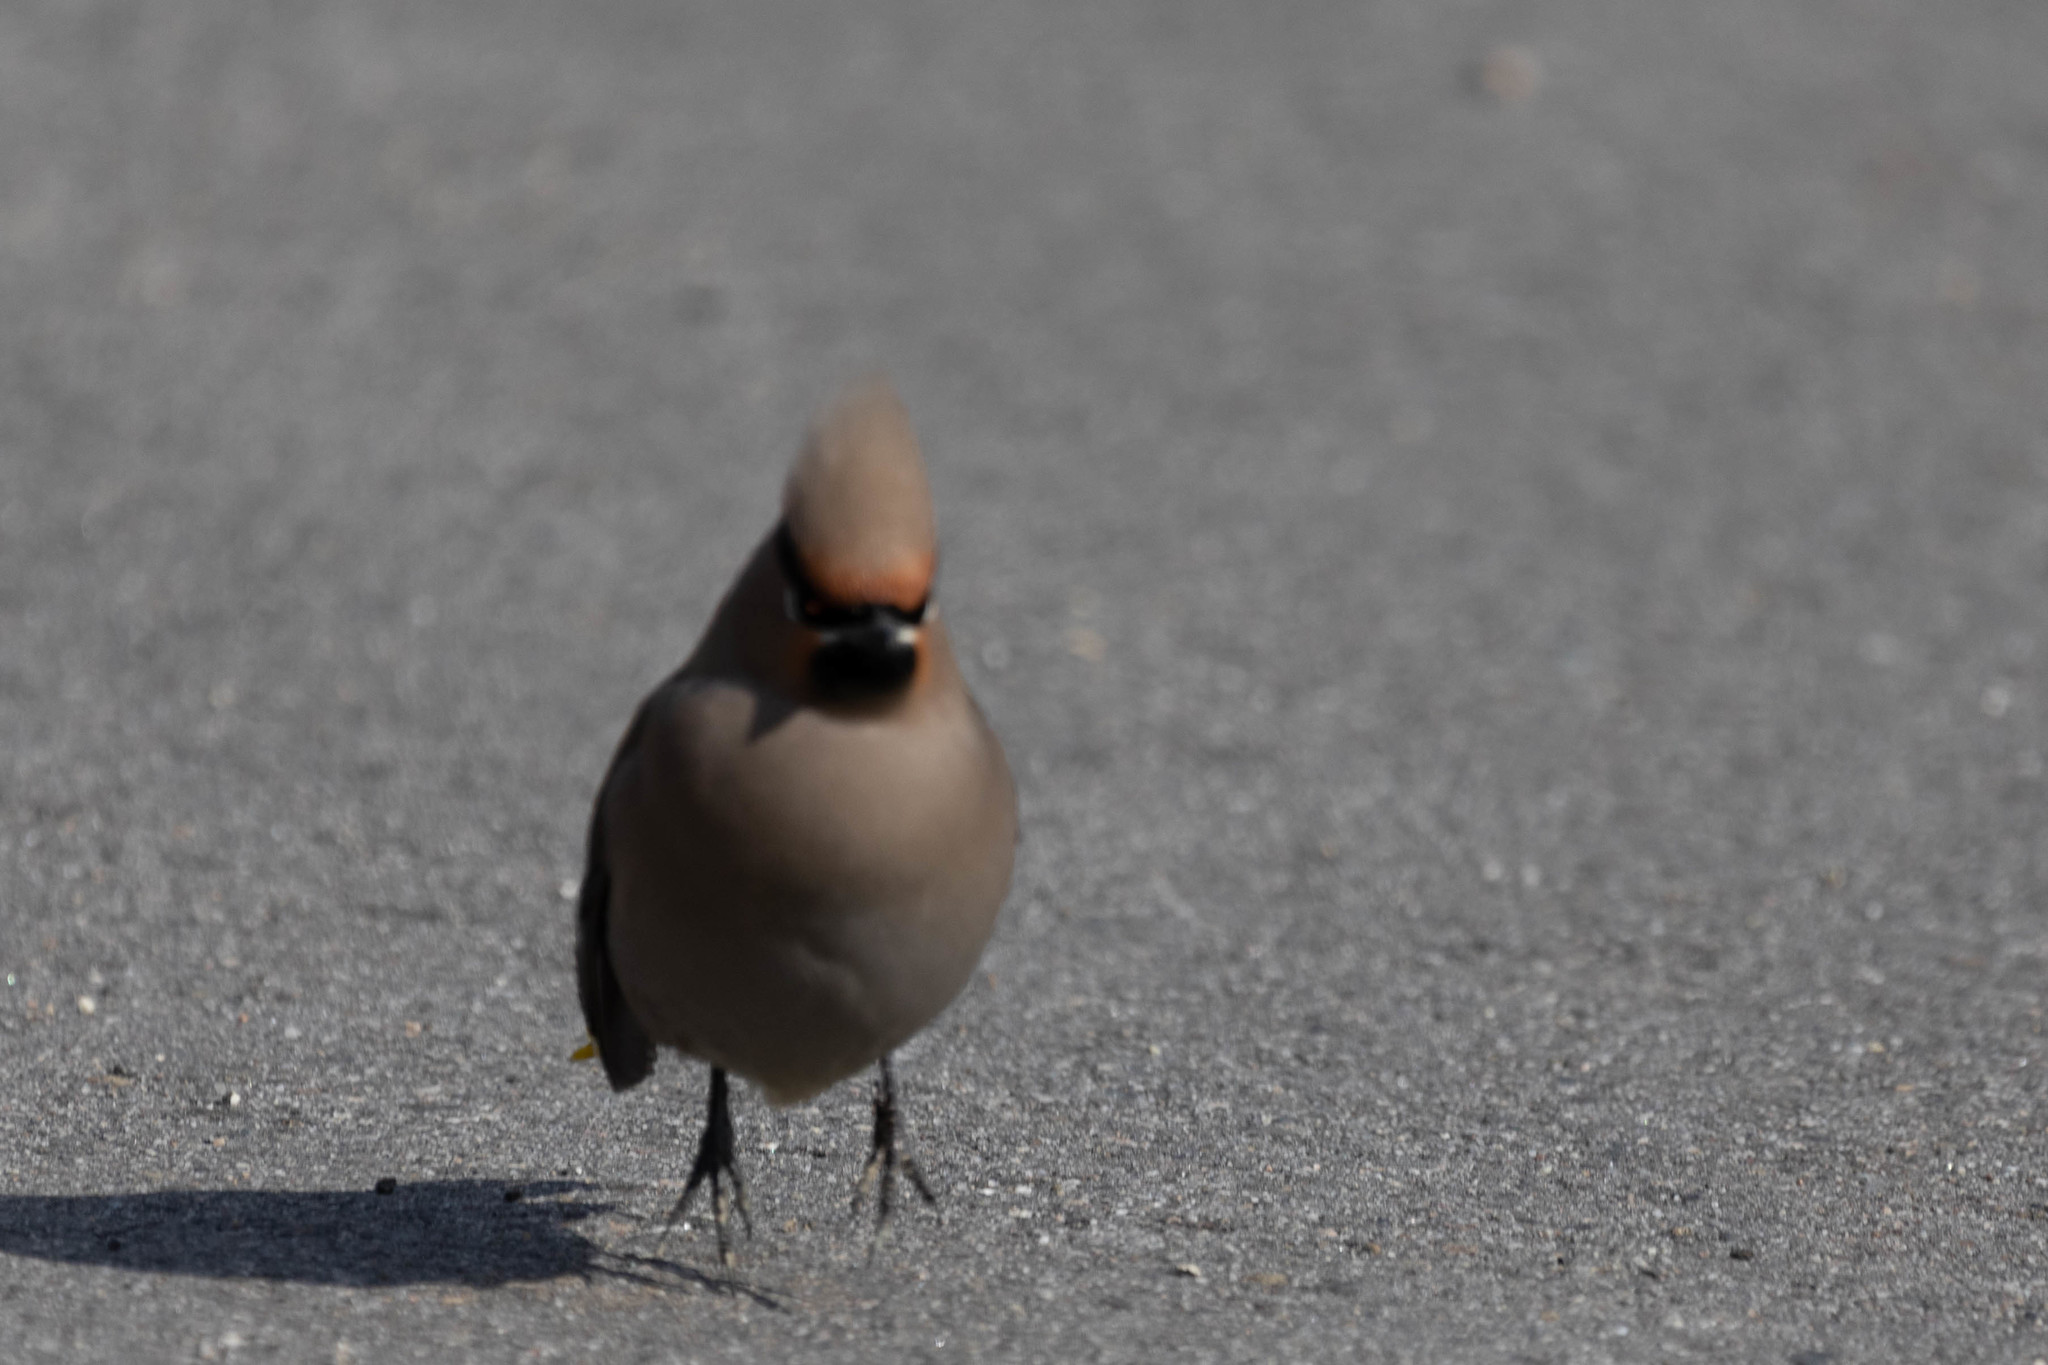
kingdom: Animalia
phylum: Chordata
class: Aves
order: Passeriformes
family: Bombycillidae
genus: Bombycilla
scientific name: Bombycilla garrulus
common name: Bohemian waxwing
